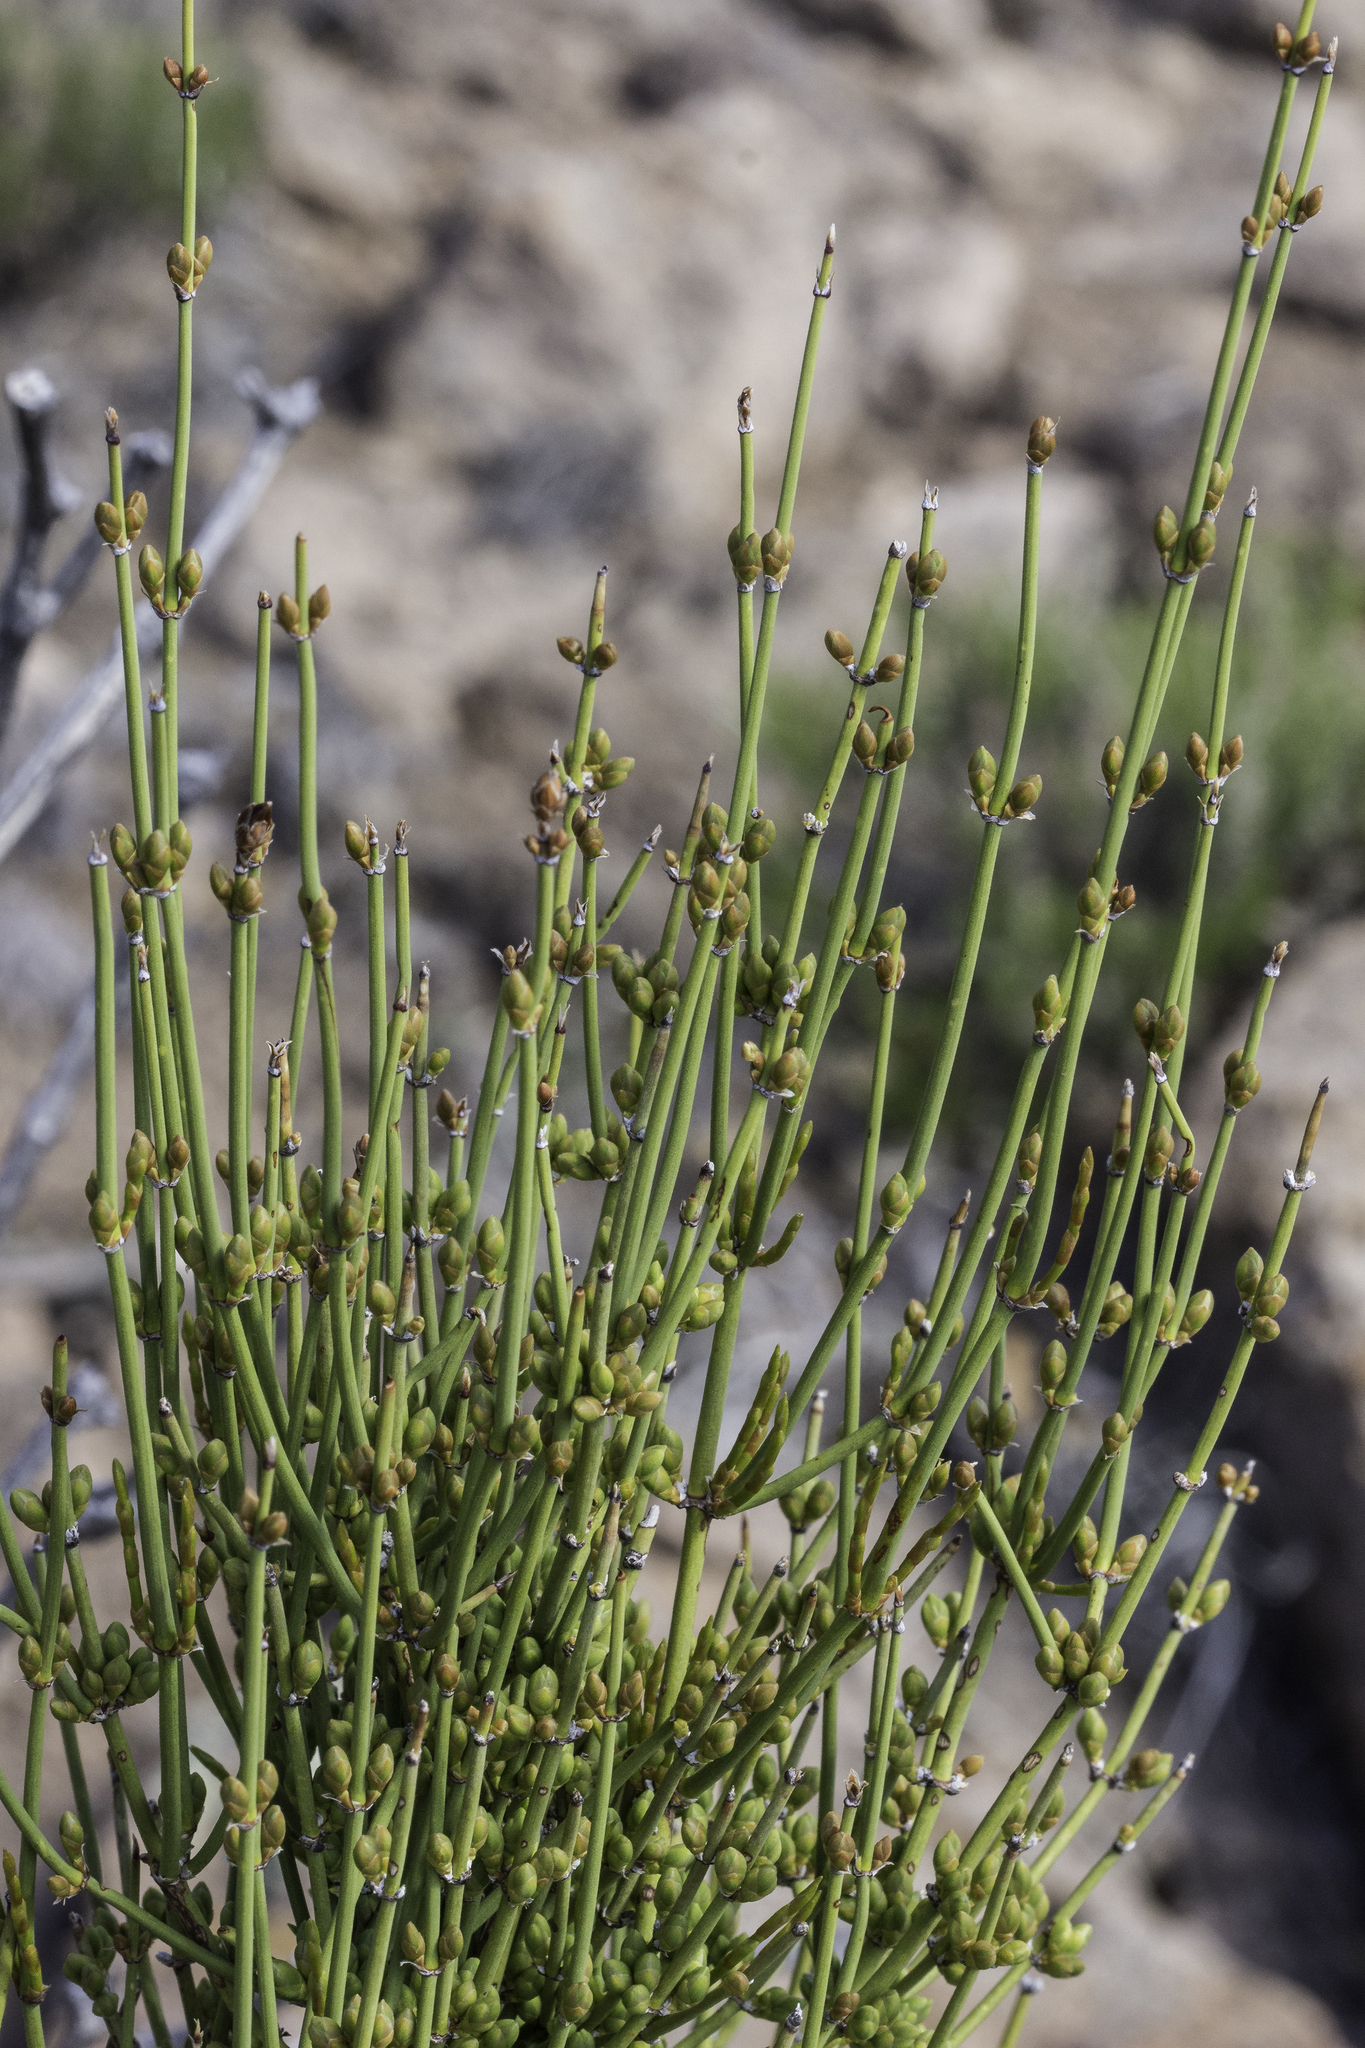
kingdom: Plantae
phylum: Tracheophyta
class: Gnetopsida
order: Ephedrales
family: Ephedraceae
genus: Ephedra
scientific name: Ephedra cutleri
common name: Cutler morning-tea
